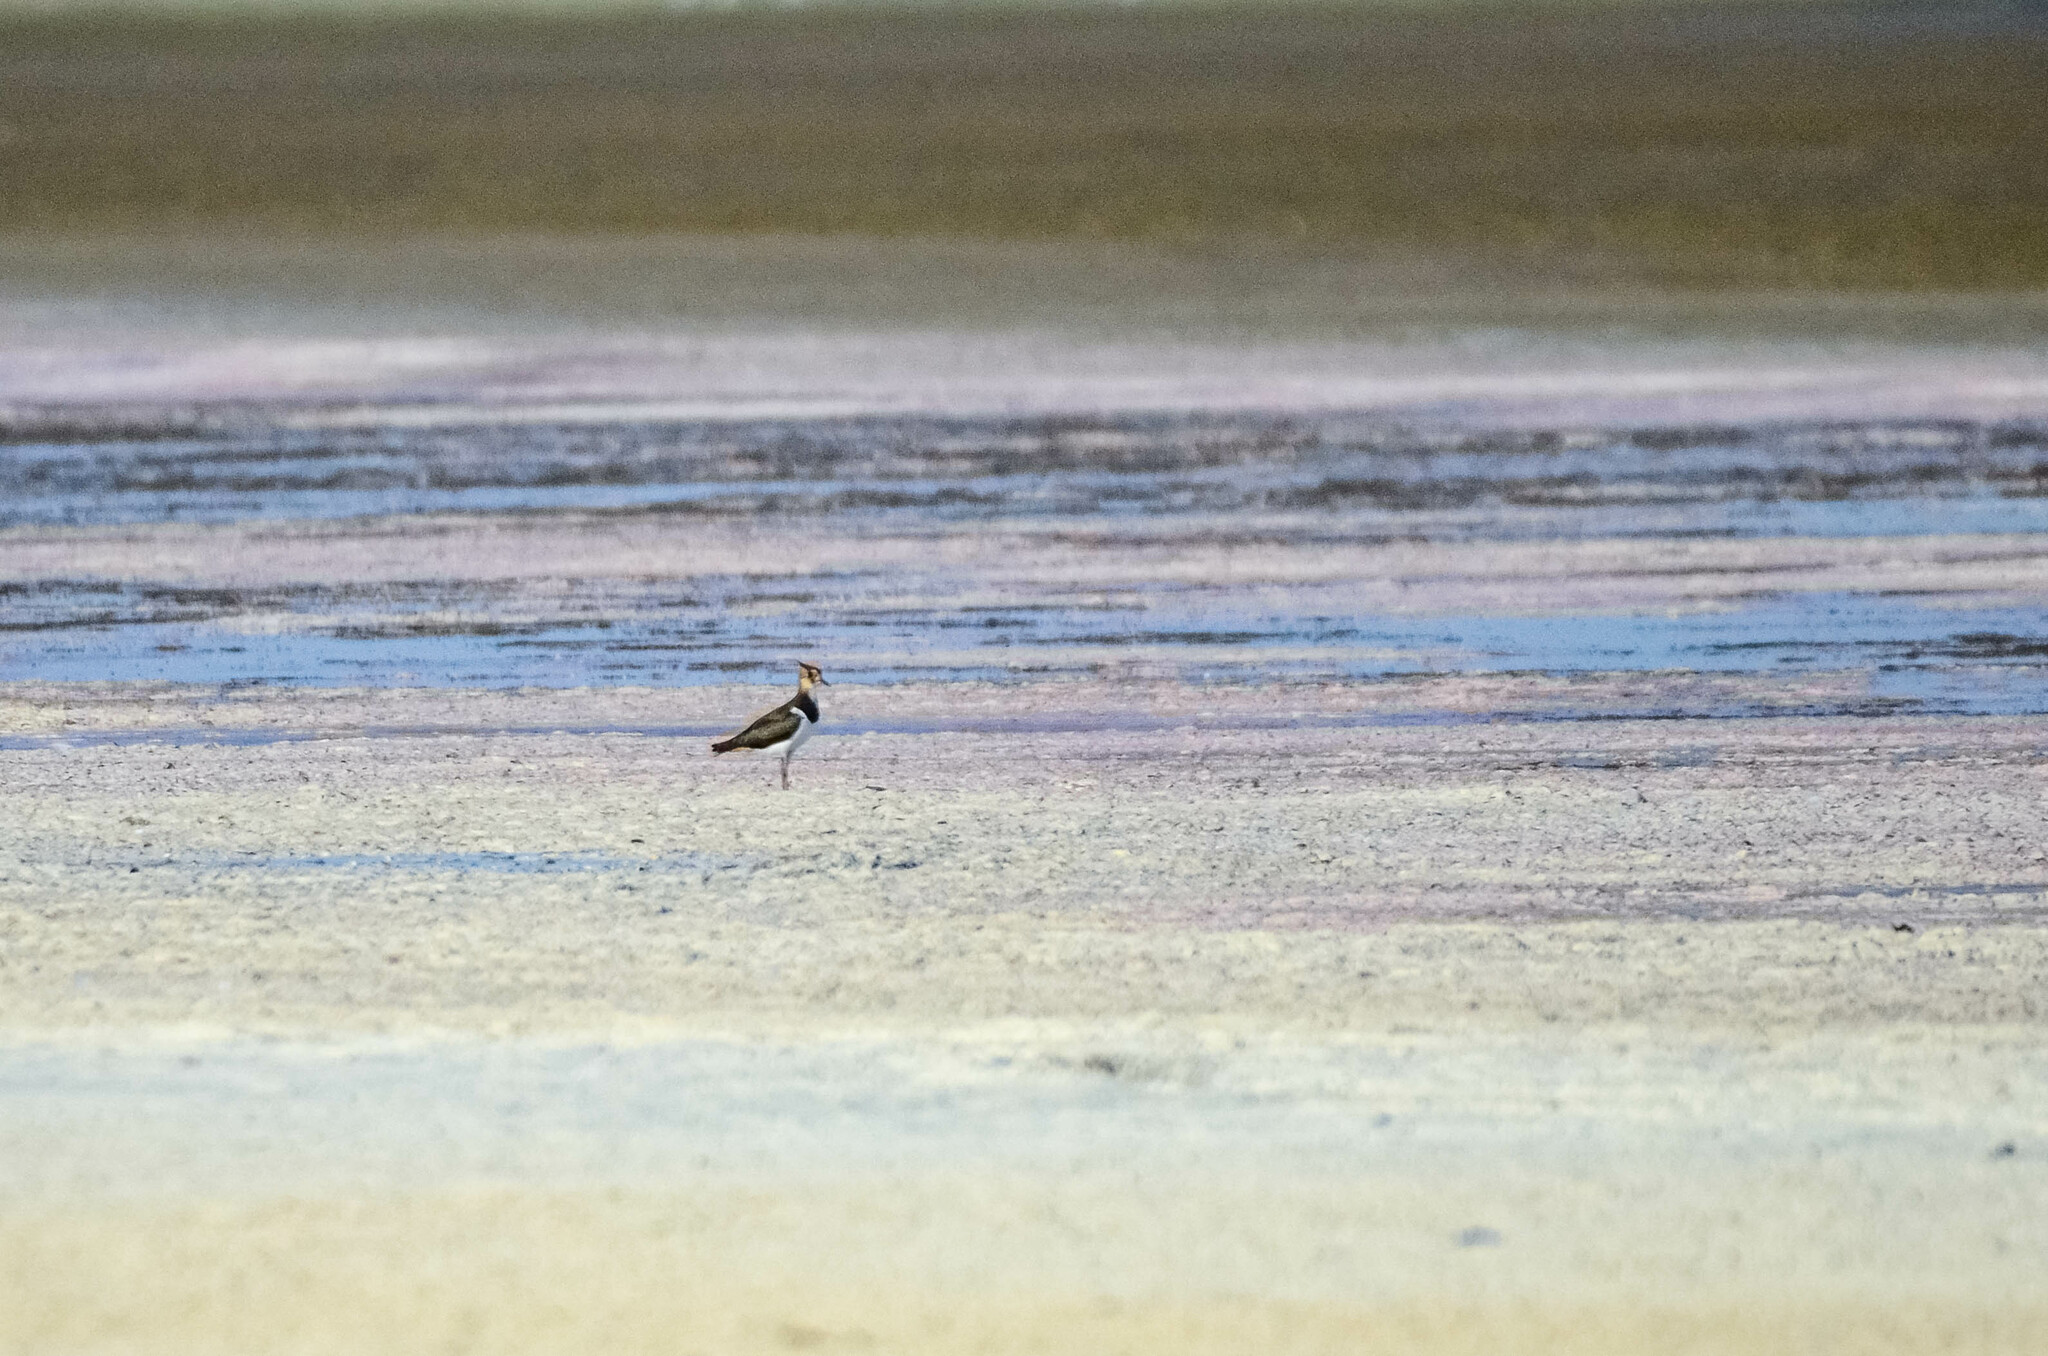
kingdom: Animalia
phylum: Chordata
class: Aves
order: Charadriiformes
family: Charadriidae
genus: Vanellus
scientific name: Vanellus vanellus
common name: Northern lapwing
